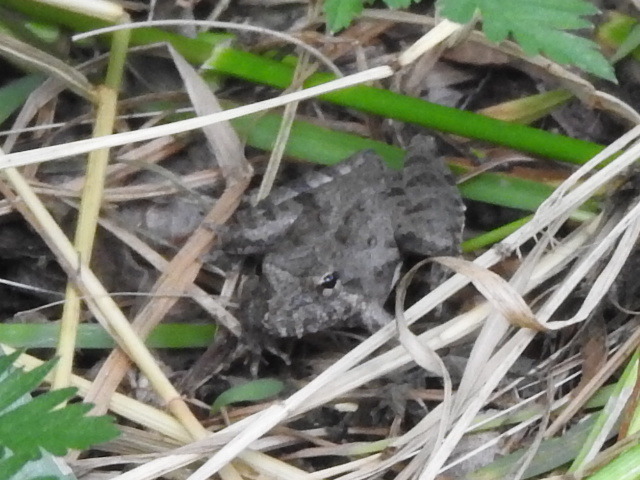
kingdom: Animalia
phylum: Chordata
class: Amphibia
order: Anura
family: Hylidae
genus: Acris
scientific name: Acris blanchardi
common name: Blanchard's cricket frog
